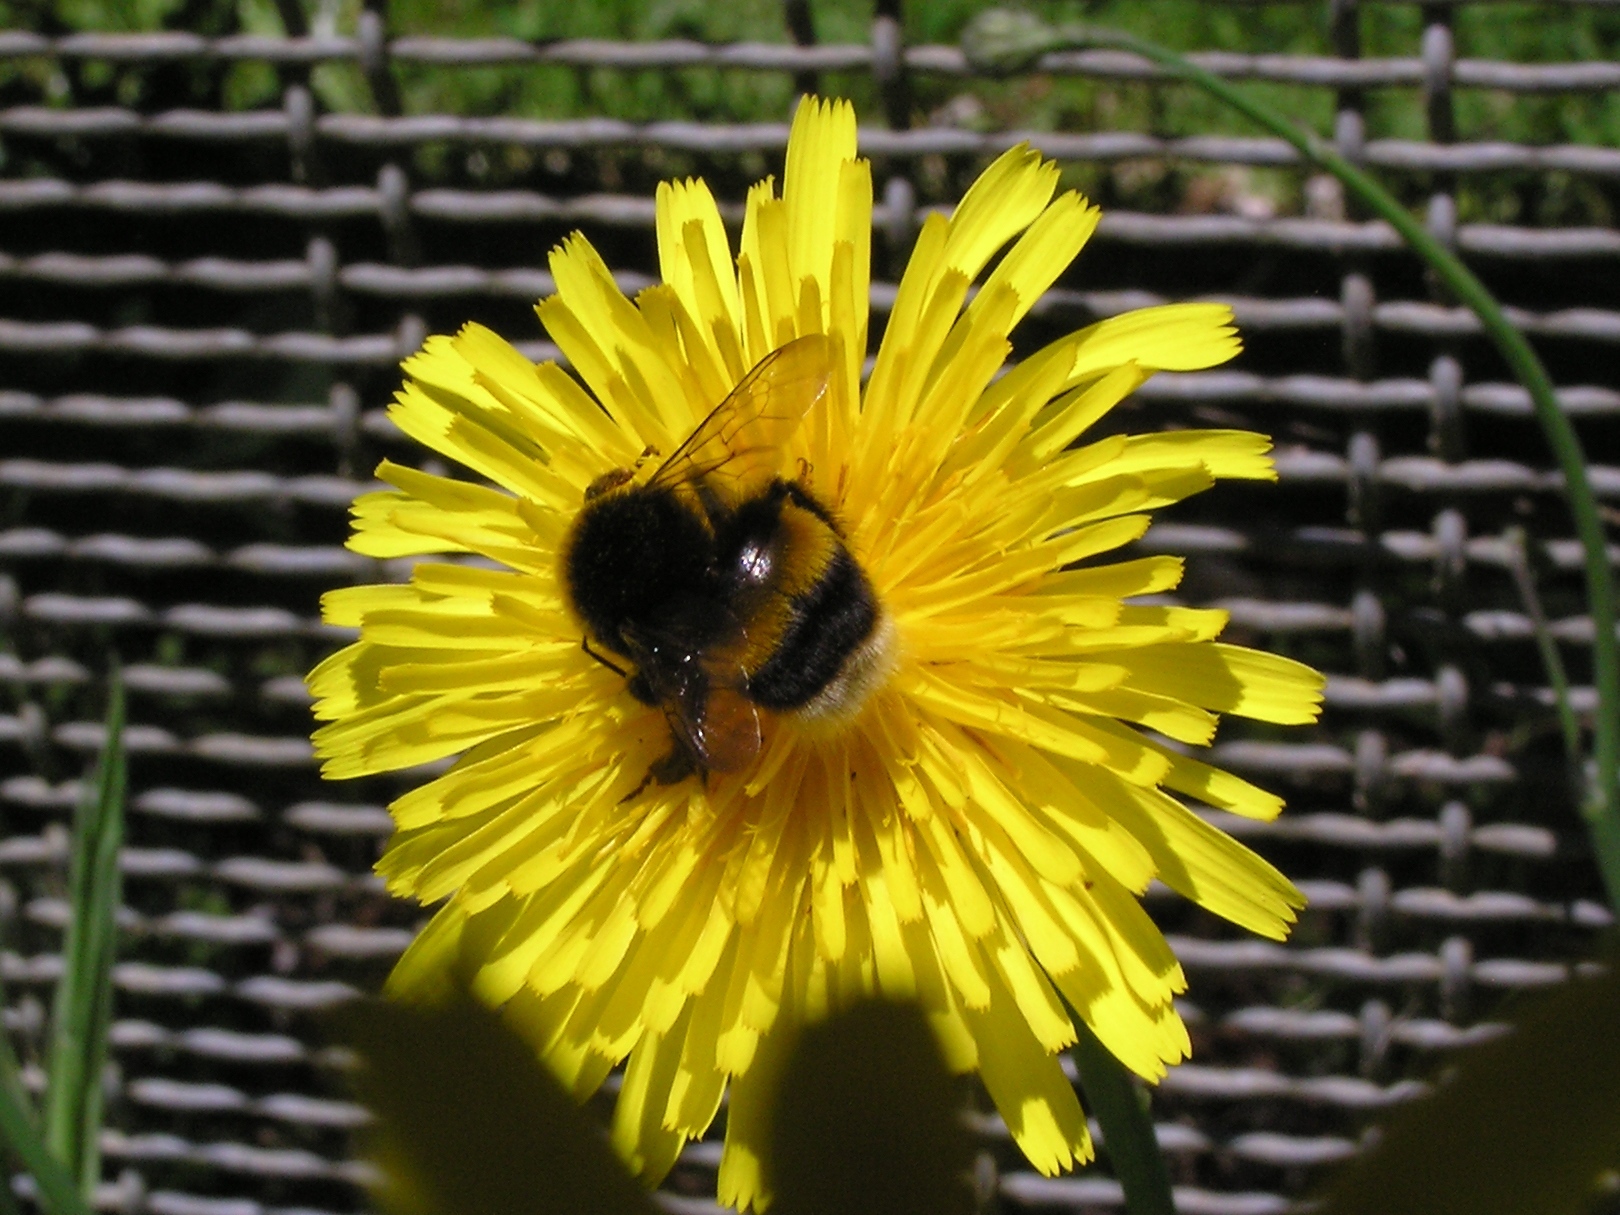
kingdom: Animalia
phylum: Arthropoda
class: Insecta
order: Hymenoptera
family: Apidae
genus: Bombus
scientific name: Bombus terrestris
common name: Buff-tailed bumblebee
